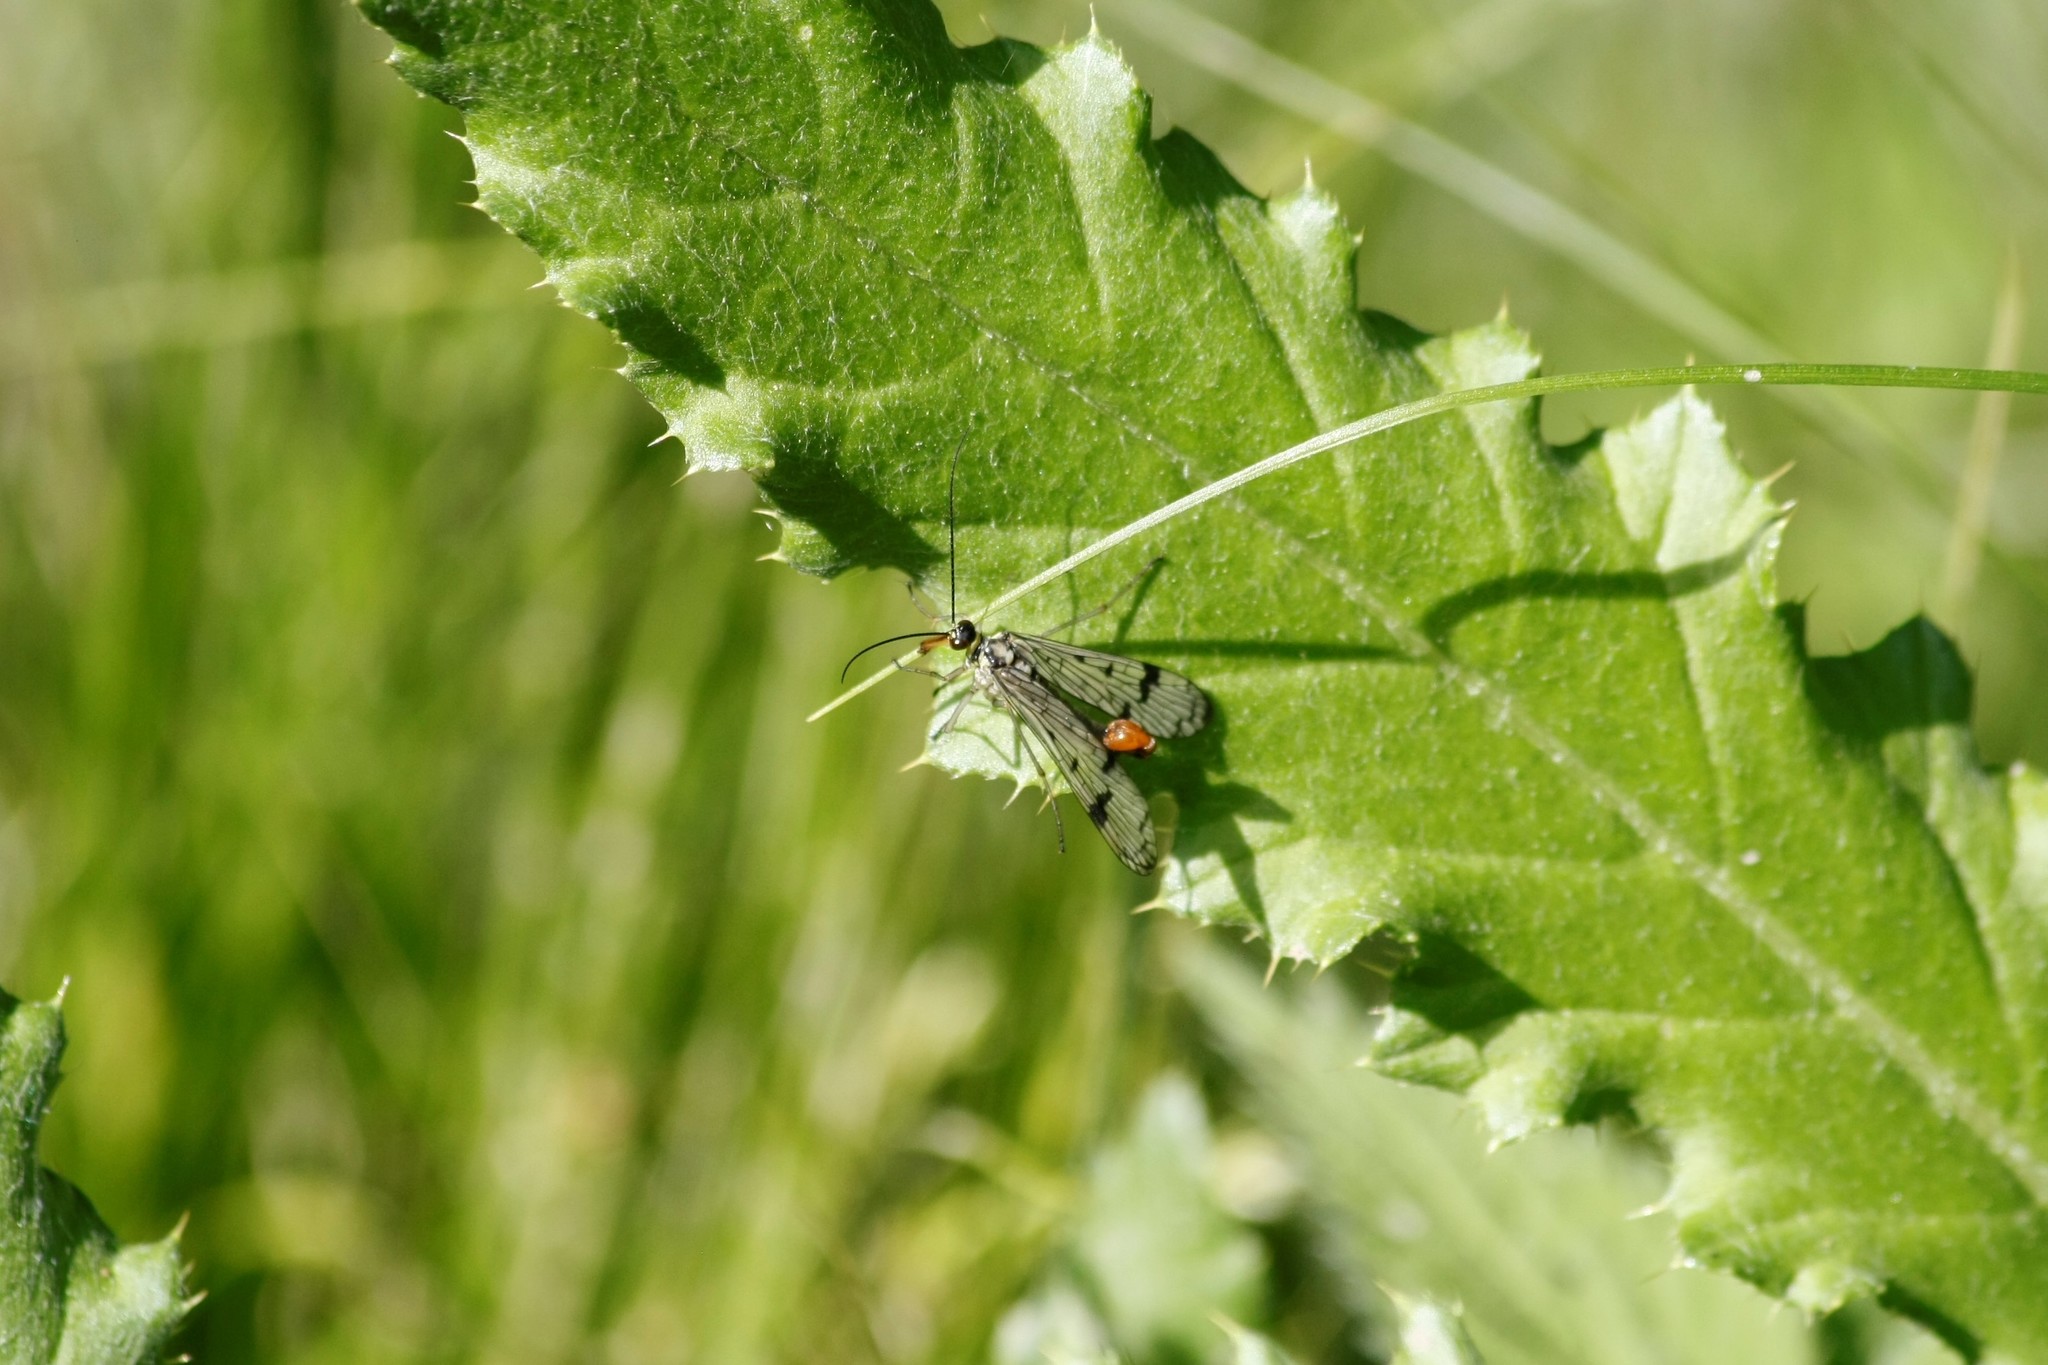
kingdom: Animalia
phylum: Arthropoda
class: Insecta
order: Mecoptera
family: Panorpidae
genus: Panorpa
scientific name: Panorpa communis
